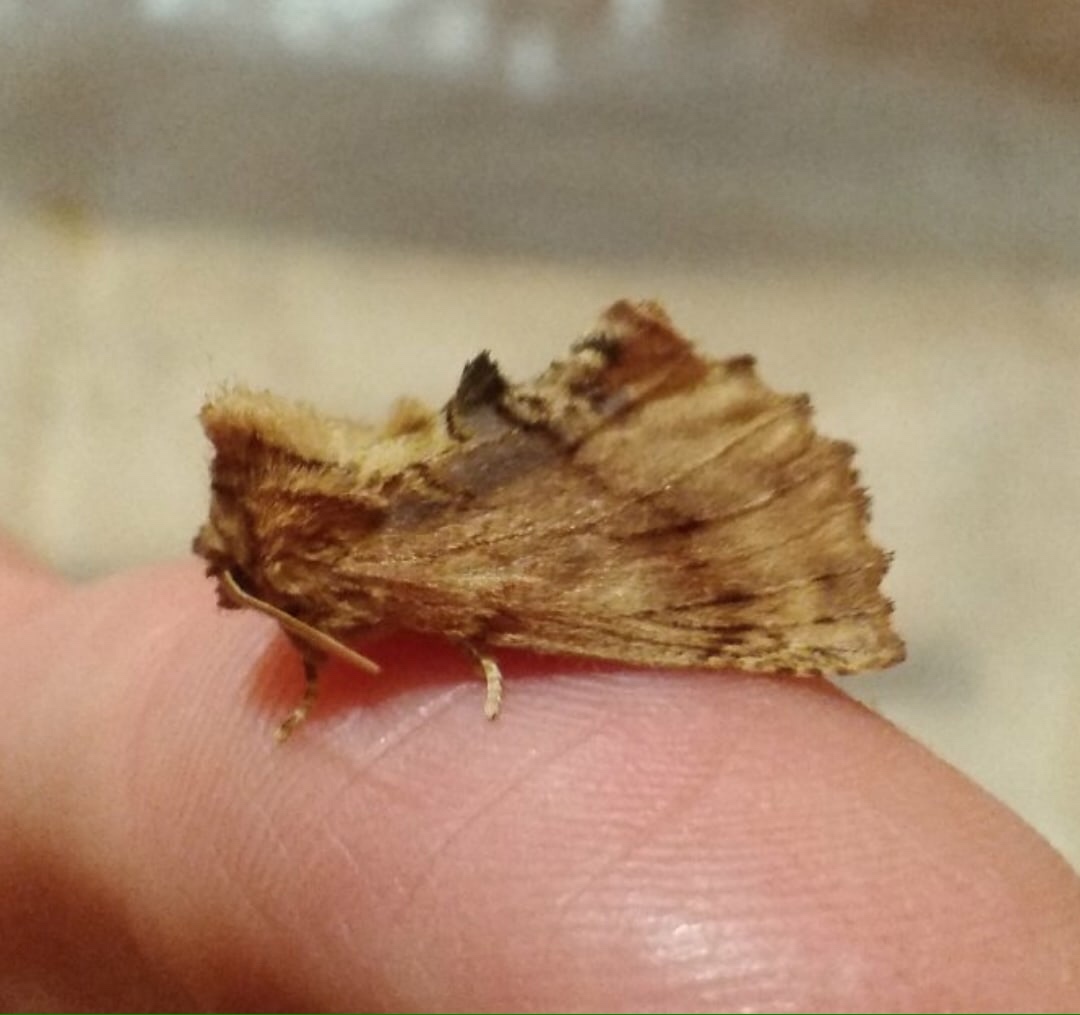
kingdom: Animalia
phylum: Arthropoda
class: Insecta
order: Lepidoptera
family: Notodontidae
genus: Ptilodon
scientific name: Ptilodon capucina
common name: Coxcomb prominent
